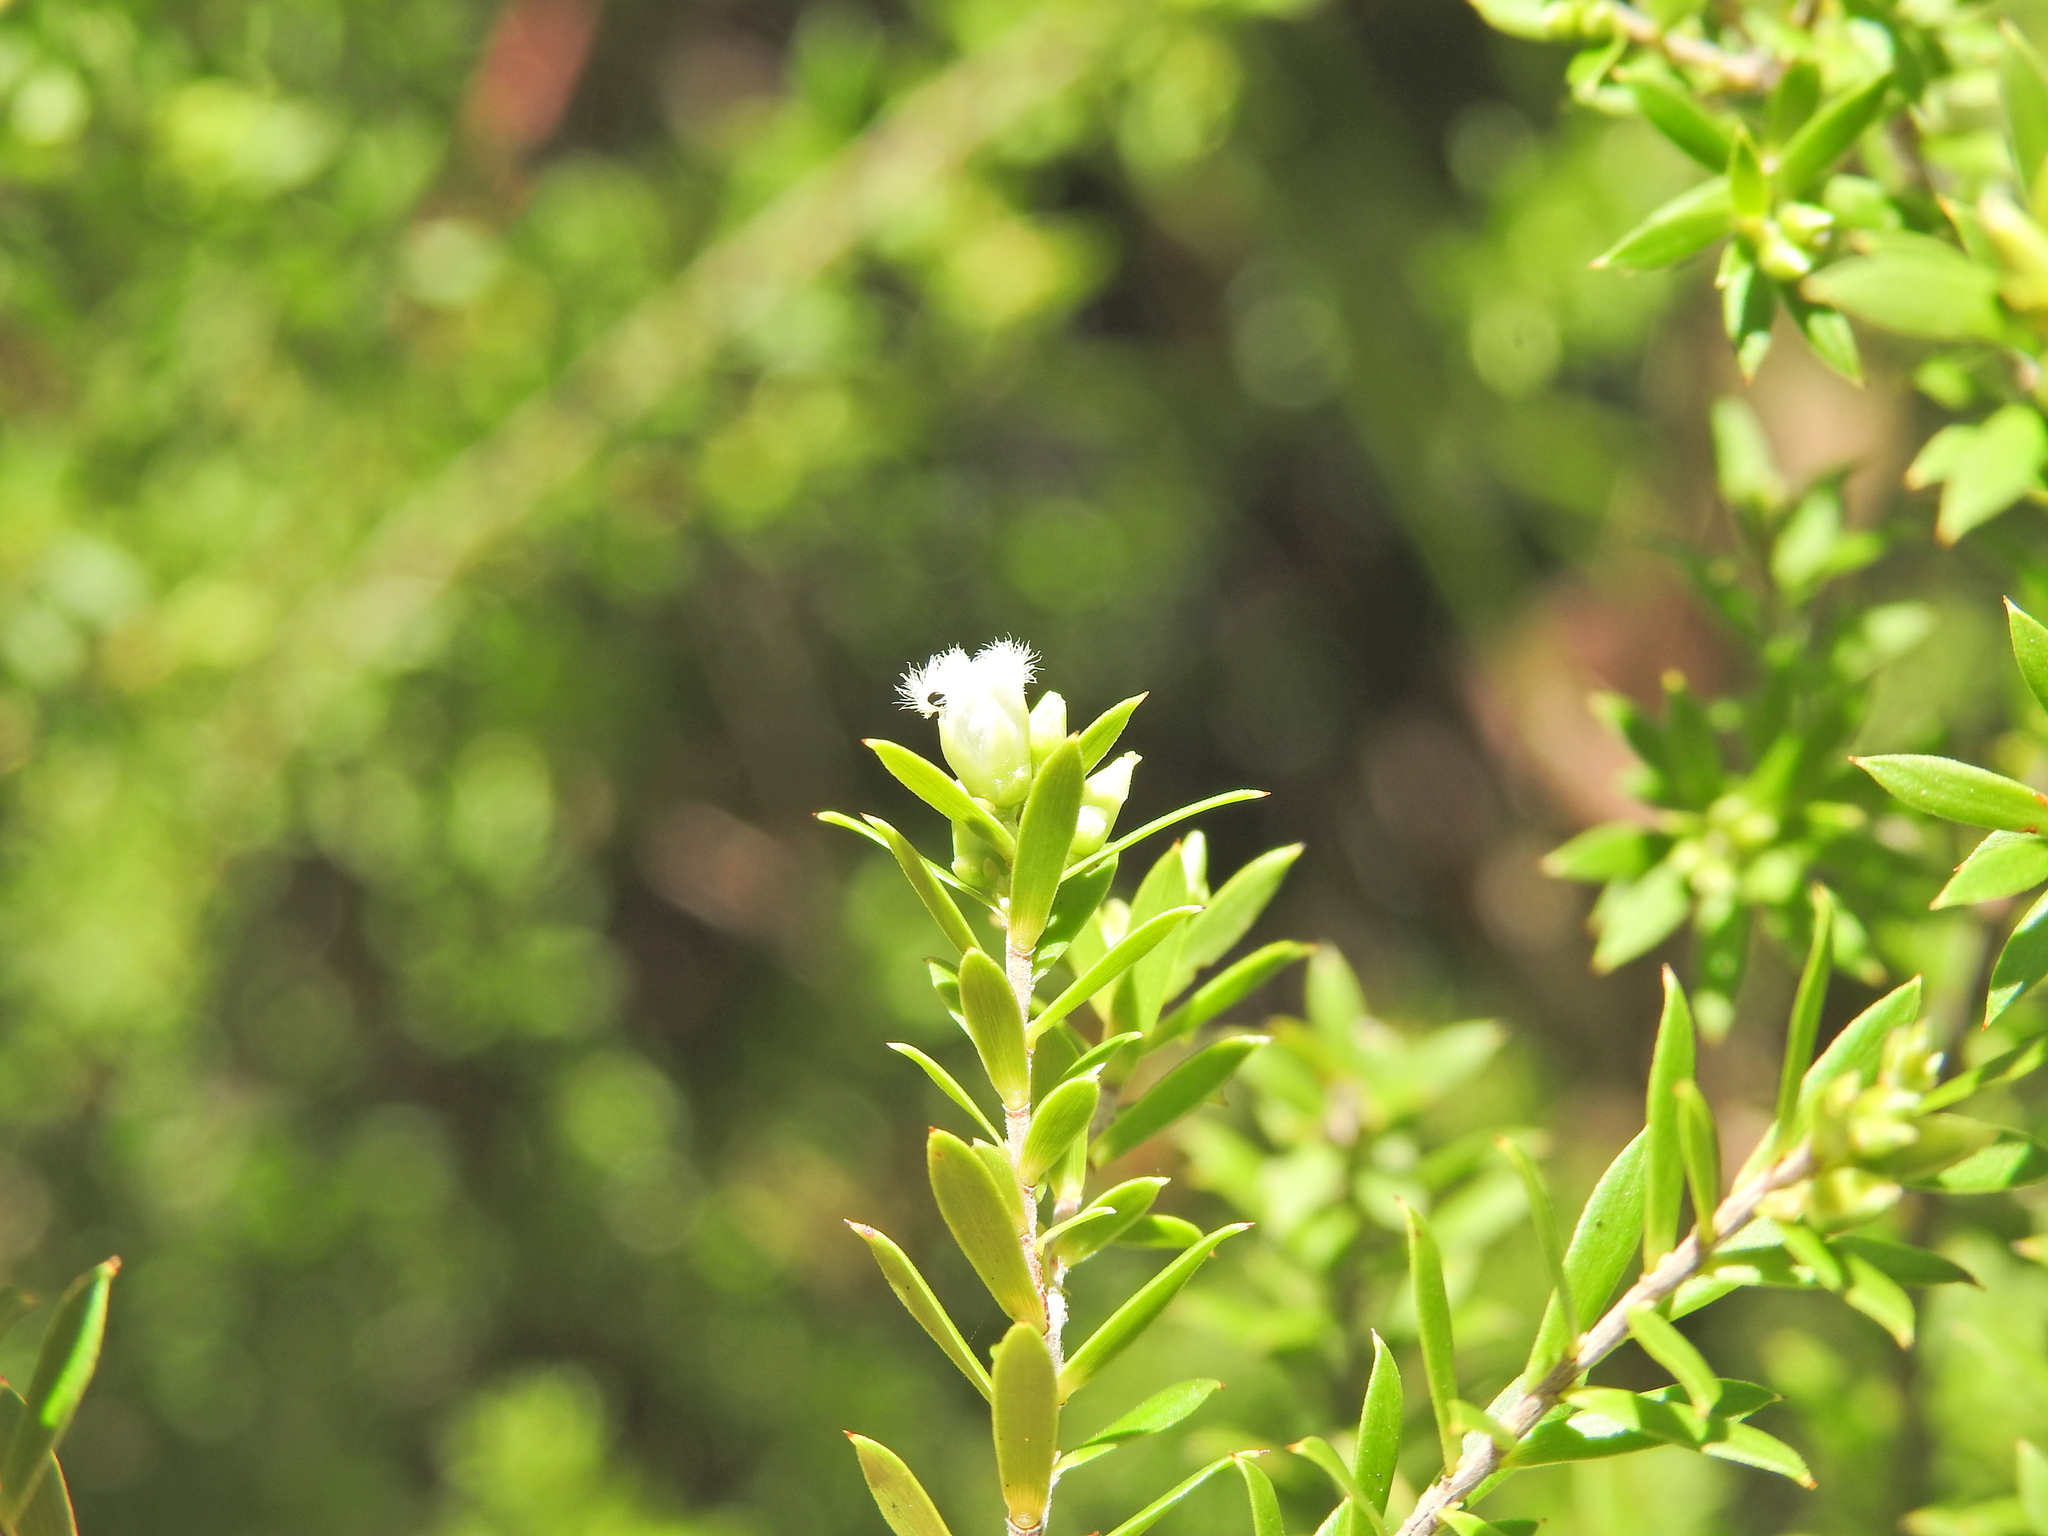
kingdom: Plantae
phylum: Tracheophyta
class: Magnoliopsida
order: Ericales
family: Ericaceae
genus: Styphelia
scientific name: Styphelia leptospermoides
